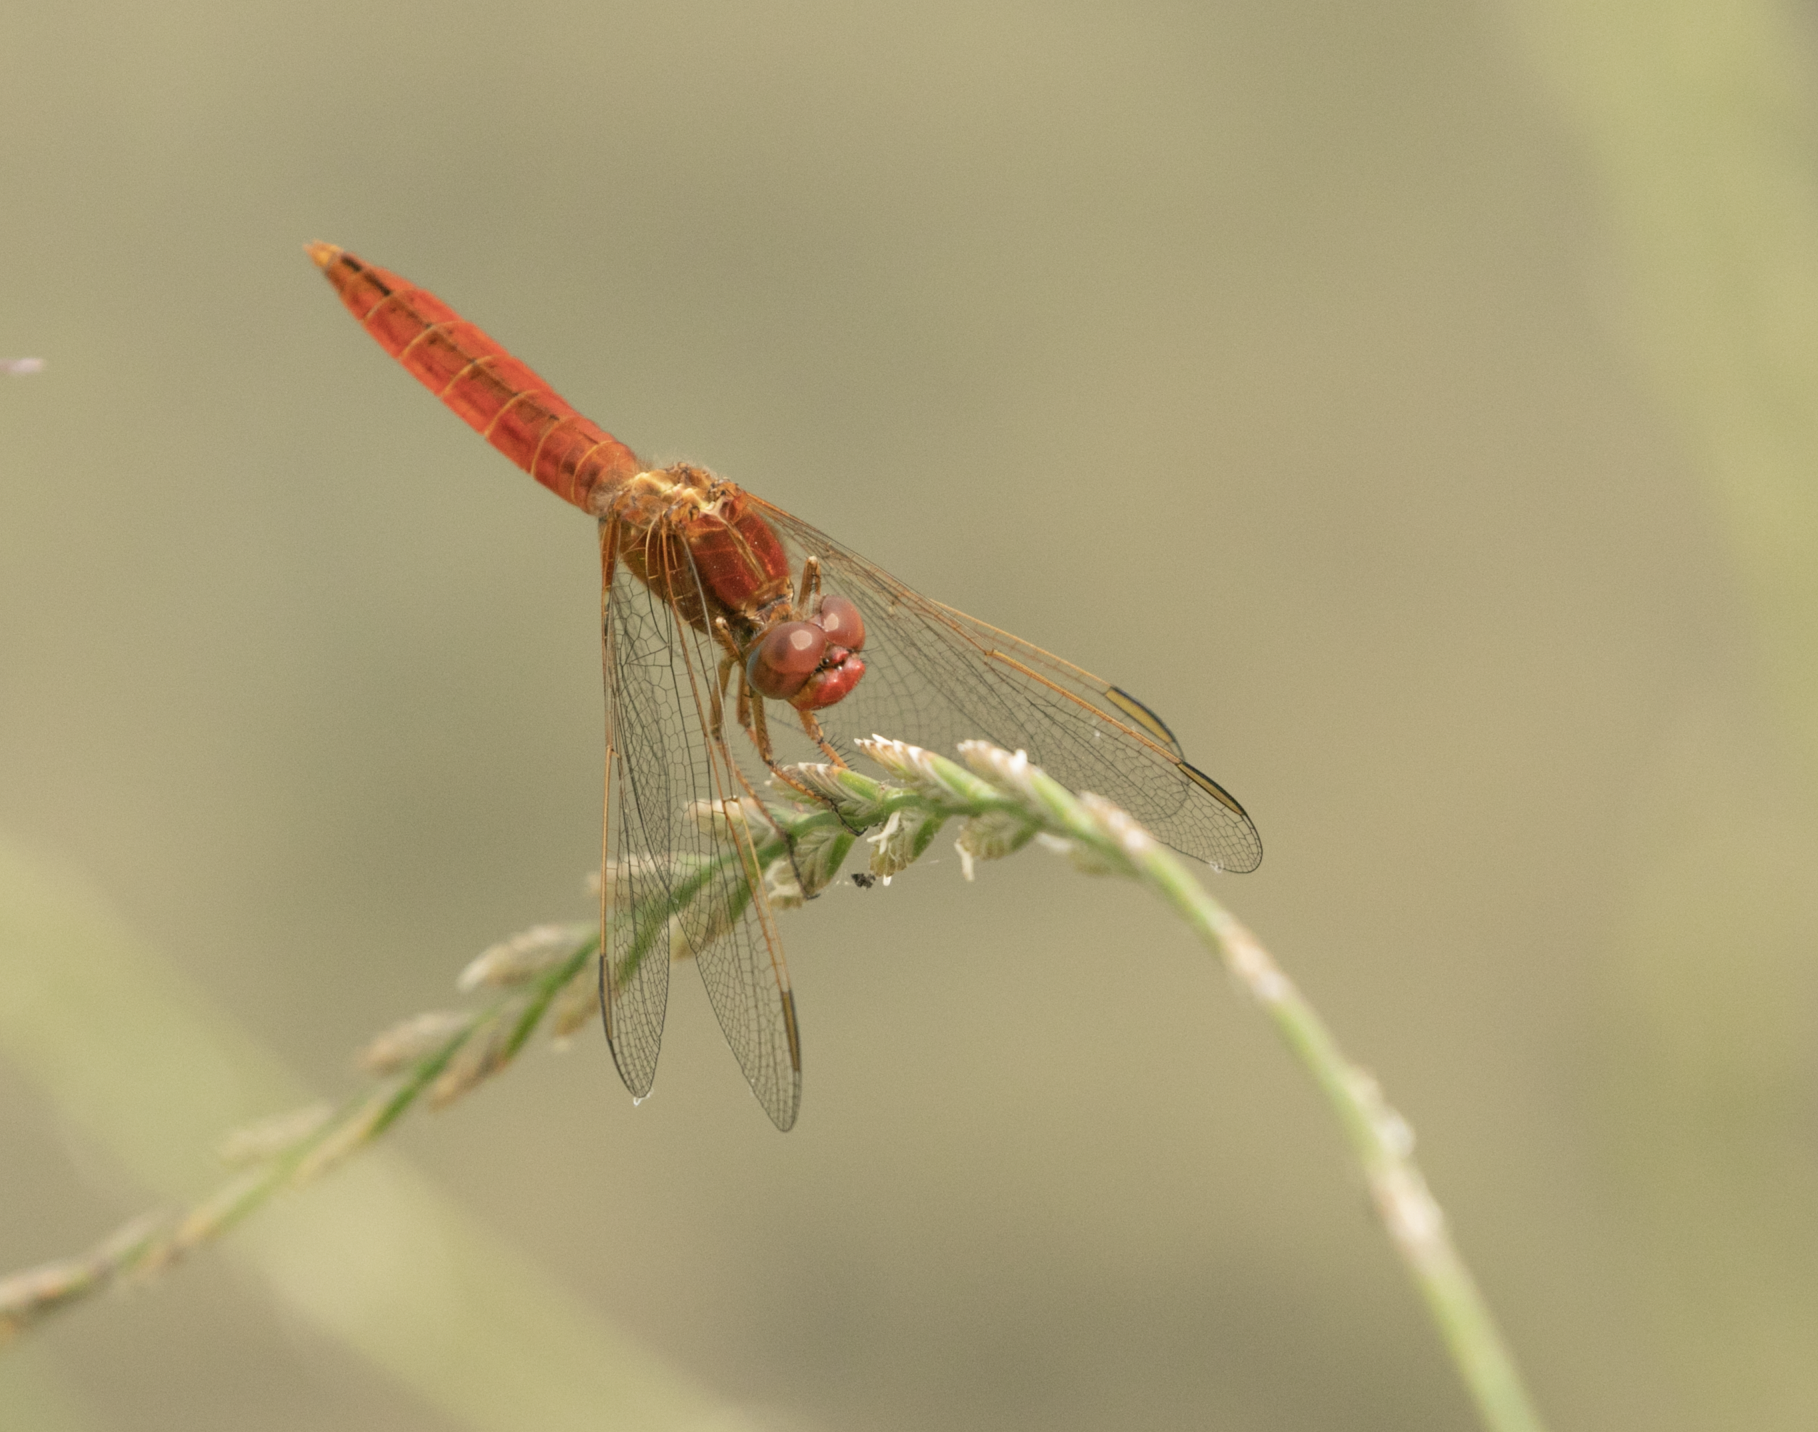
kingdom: Animalia
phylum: Arthropoda
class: Insecta
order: Odonata
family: Libellulidae
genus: Crocothemis
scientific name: Crocothemis erythraea
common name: Scarlet dragonfly
